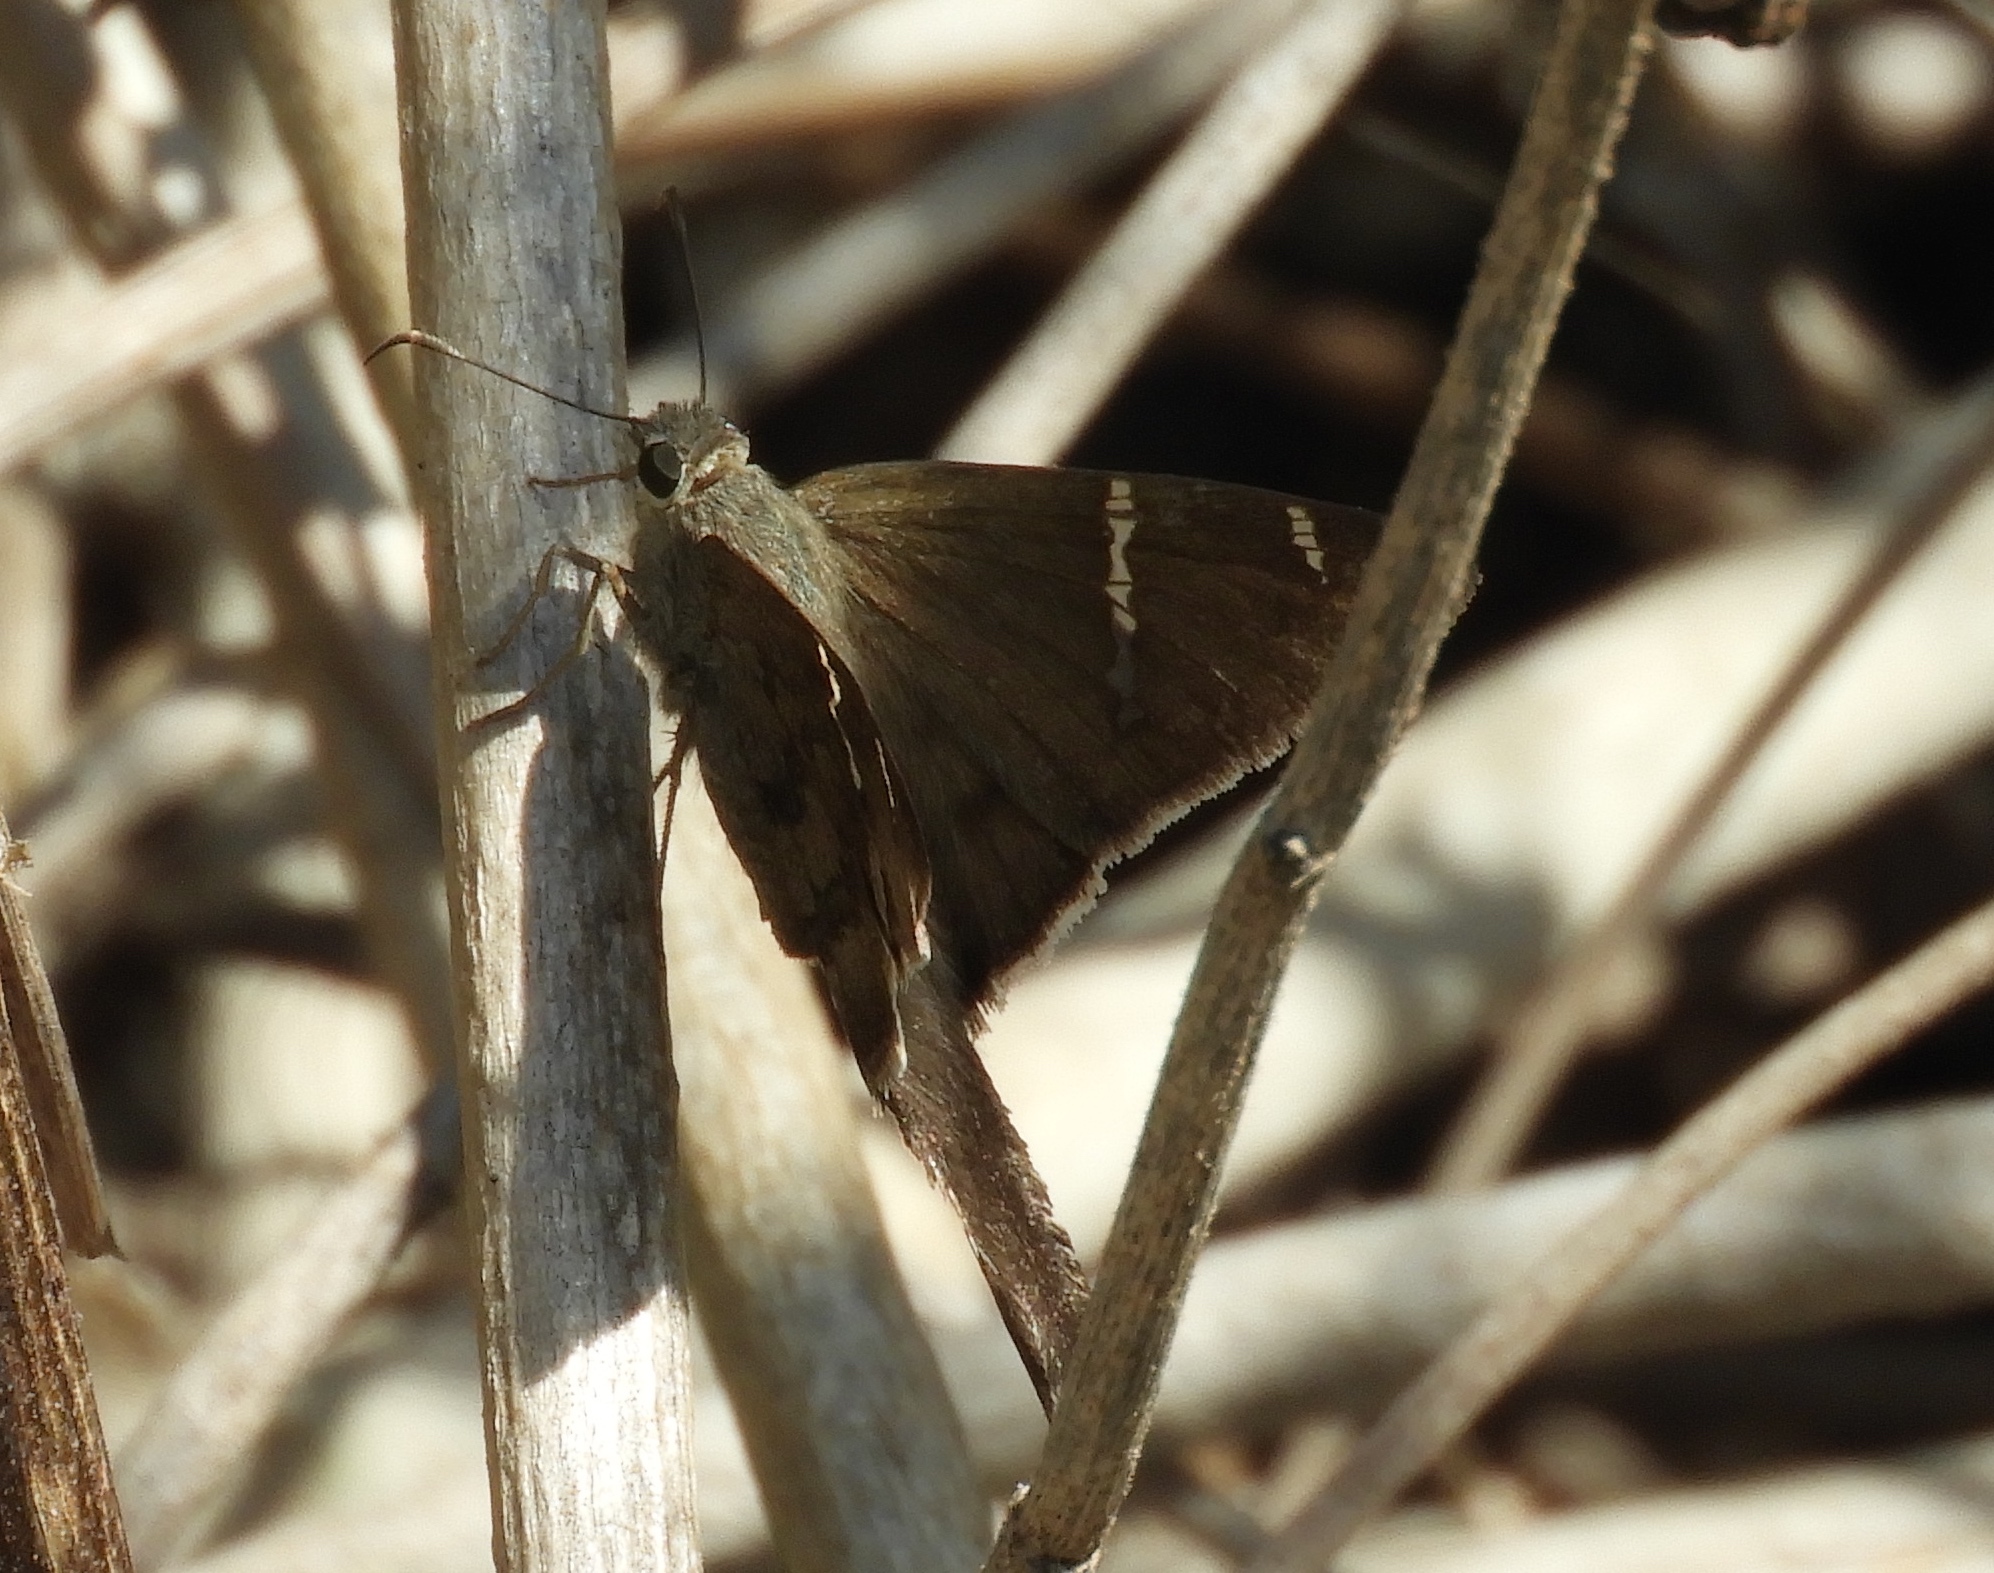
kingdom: Animalia
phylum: Arthropoda
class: Insecta
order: Lepidoptera
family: Hesperiidae
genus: Urbanus
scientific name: Urbanus procne
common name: Brown longtail
